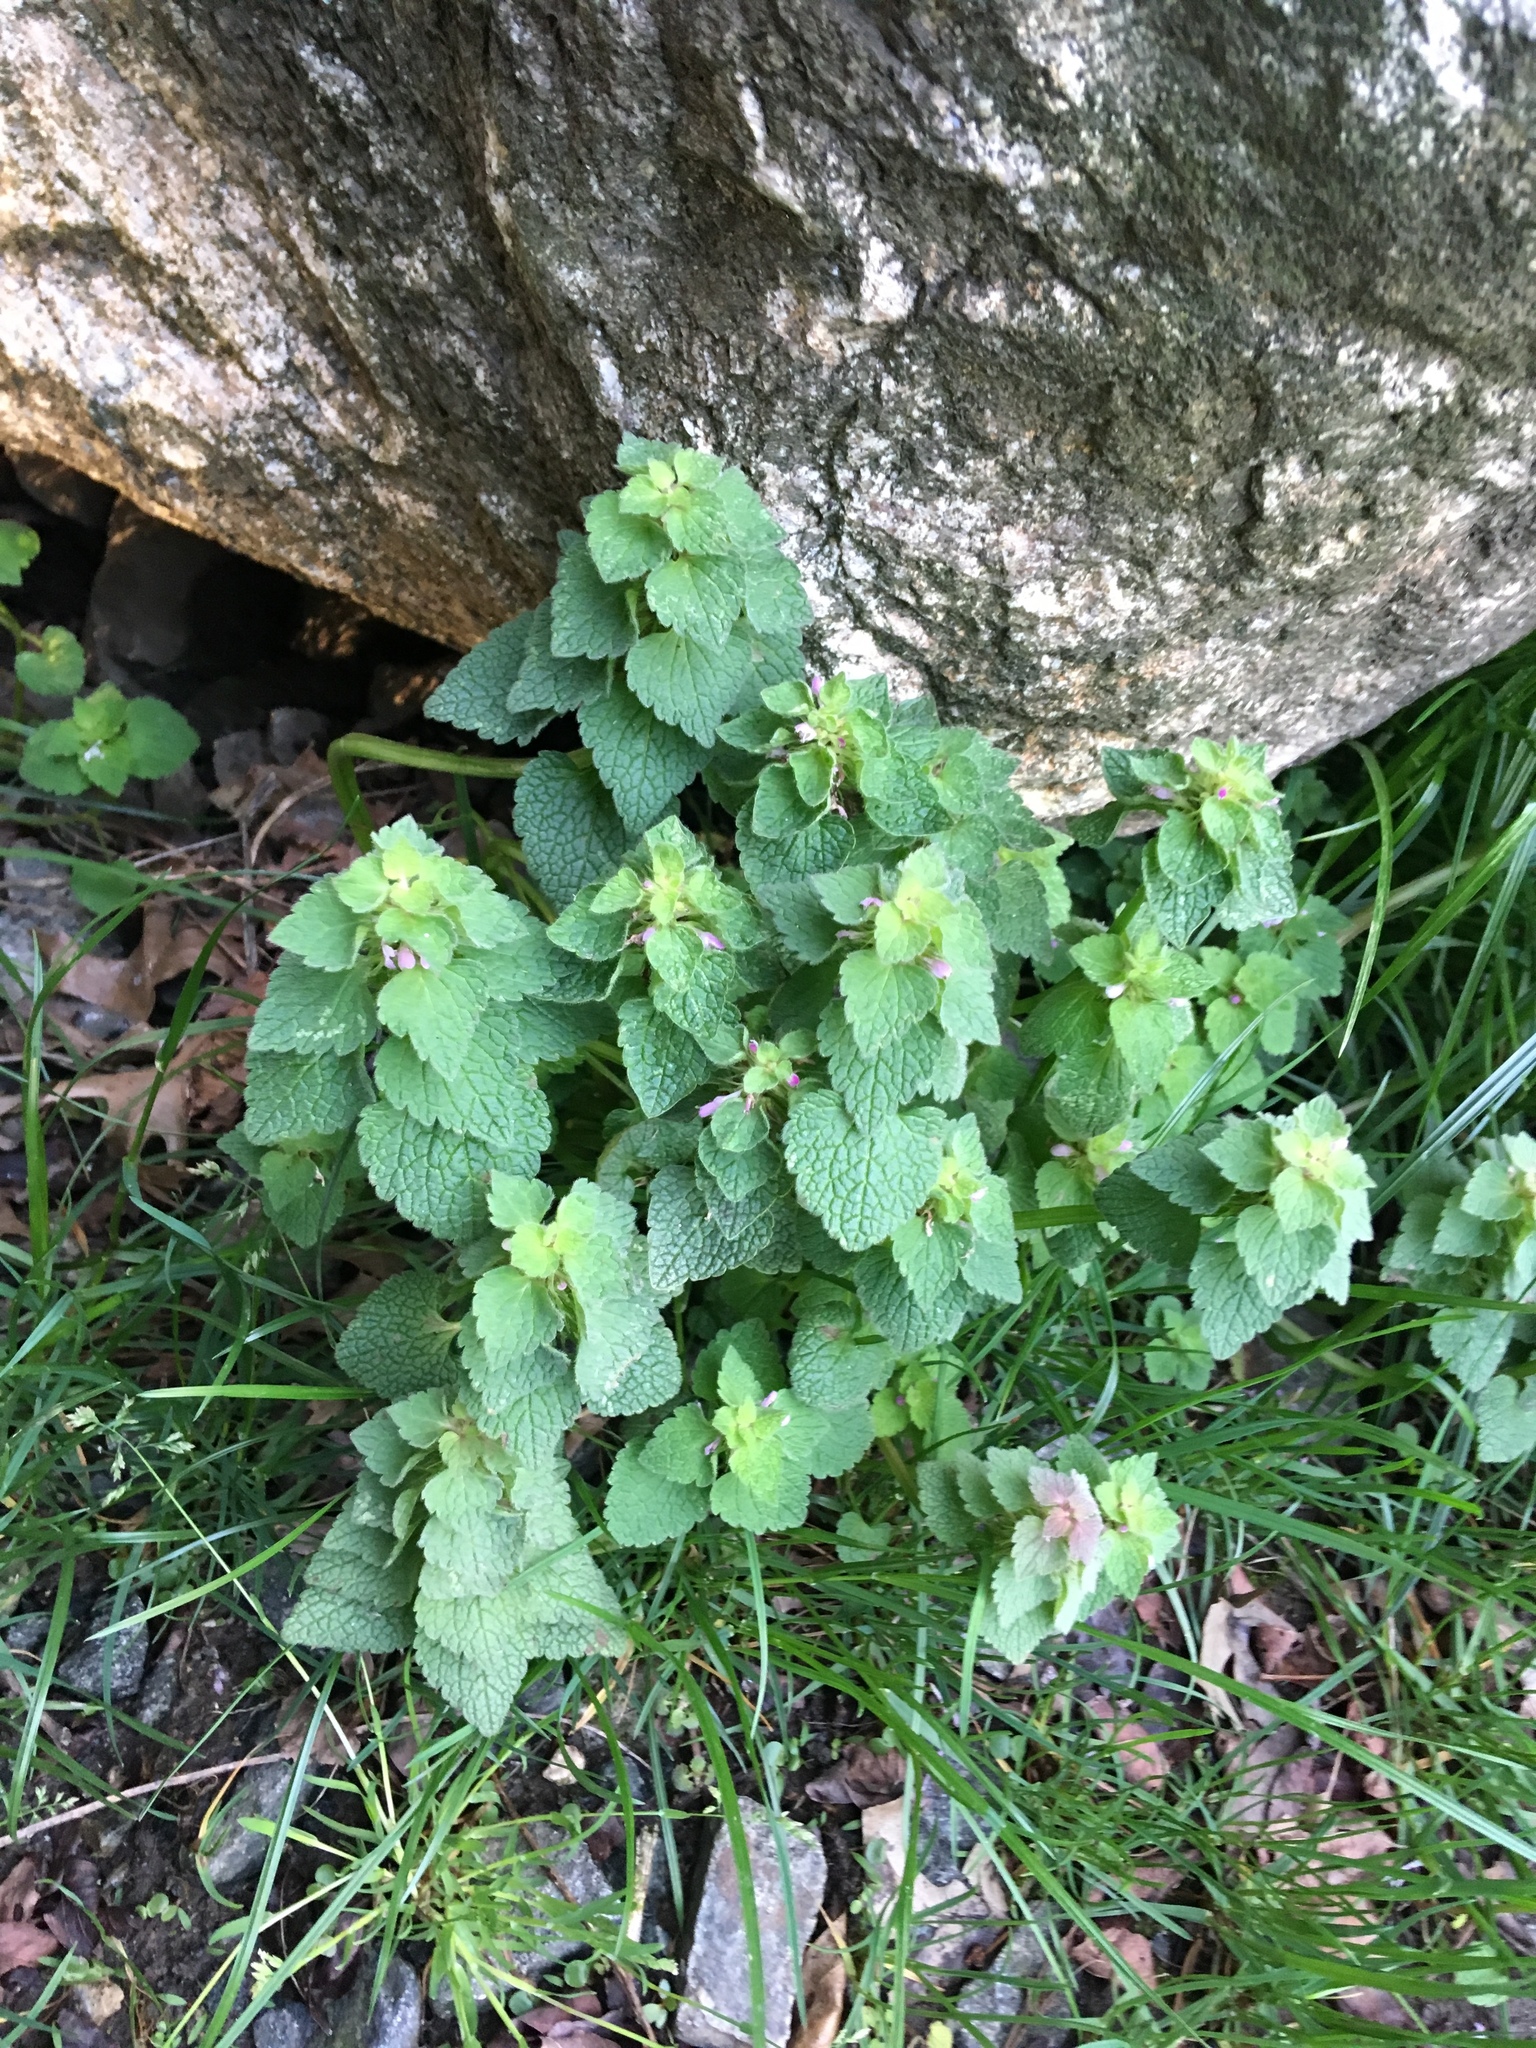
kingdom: Plantae
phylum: Tracheophyta
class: Magnoliopsida
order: Lamiales
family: Lamiaceae
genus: Lamium
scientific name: Lamium purpureum
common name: Red dead-nettle
